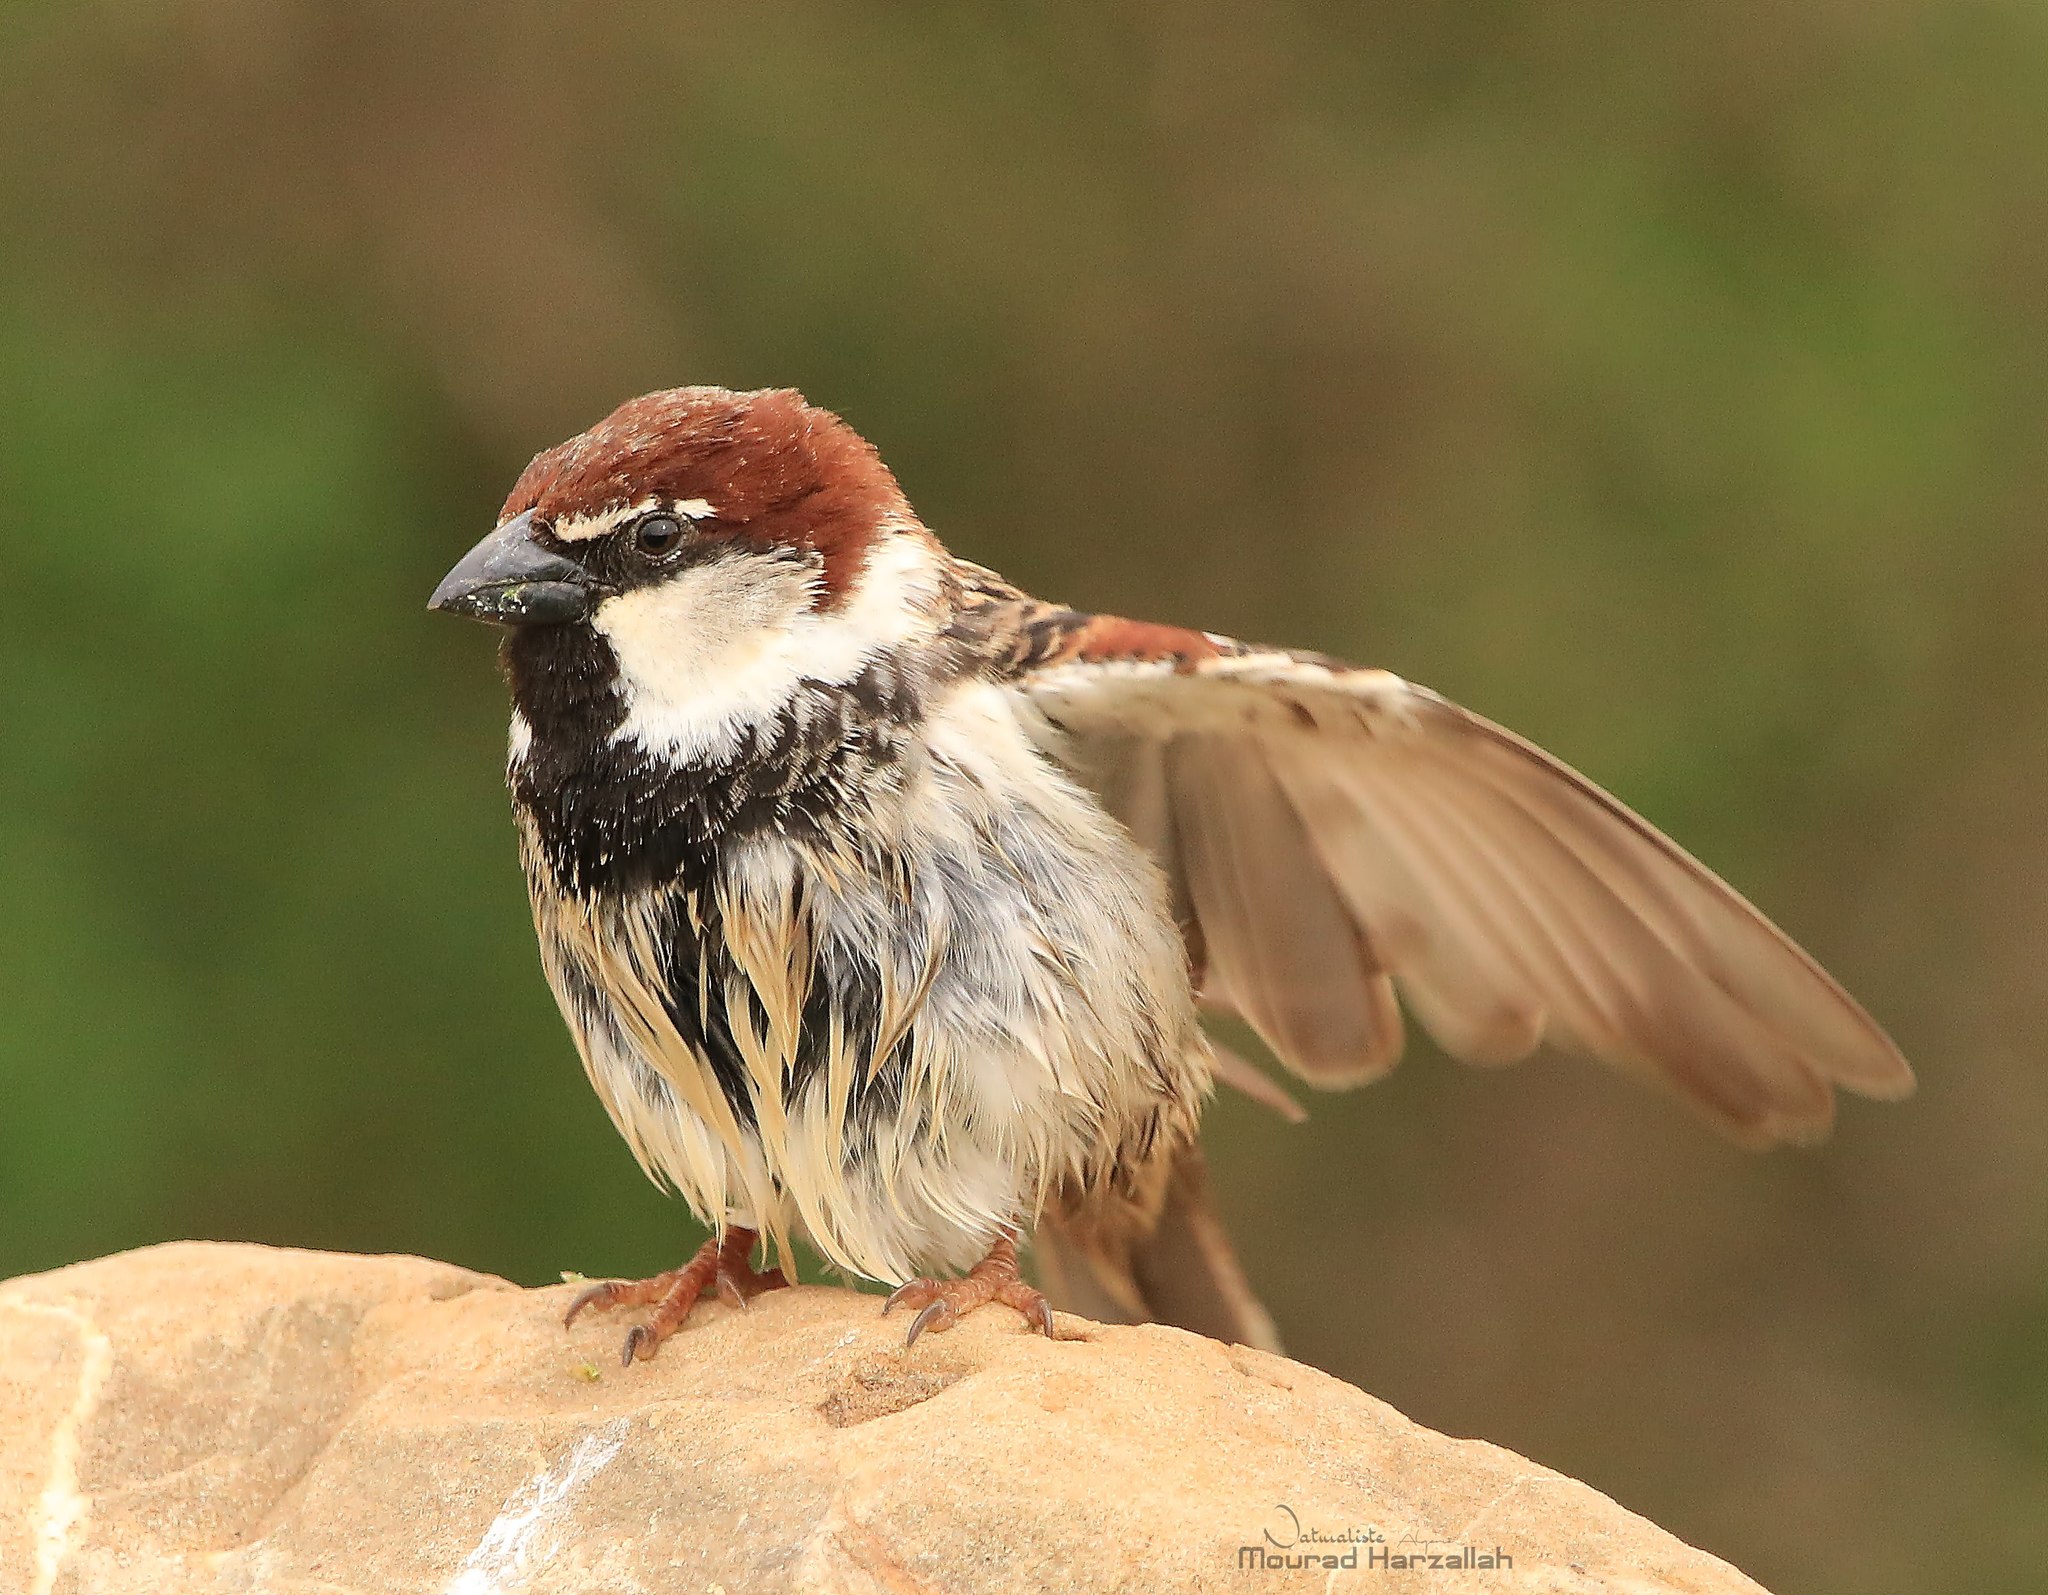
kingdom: Animalia
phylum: Chordata
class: Aves
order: Passeriformes
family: Passeridae
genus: Passer
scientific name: Passer hispaniolensis
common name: Spanish sparrow
